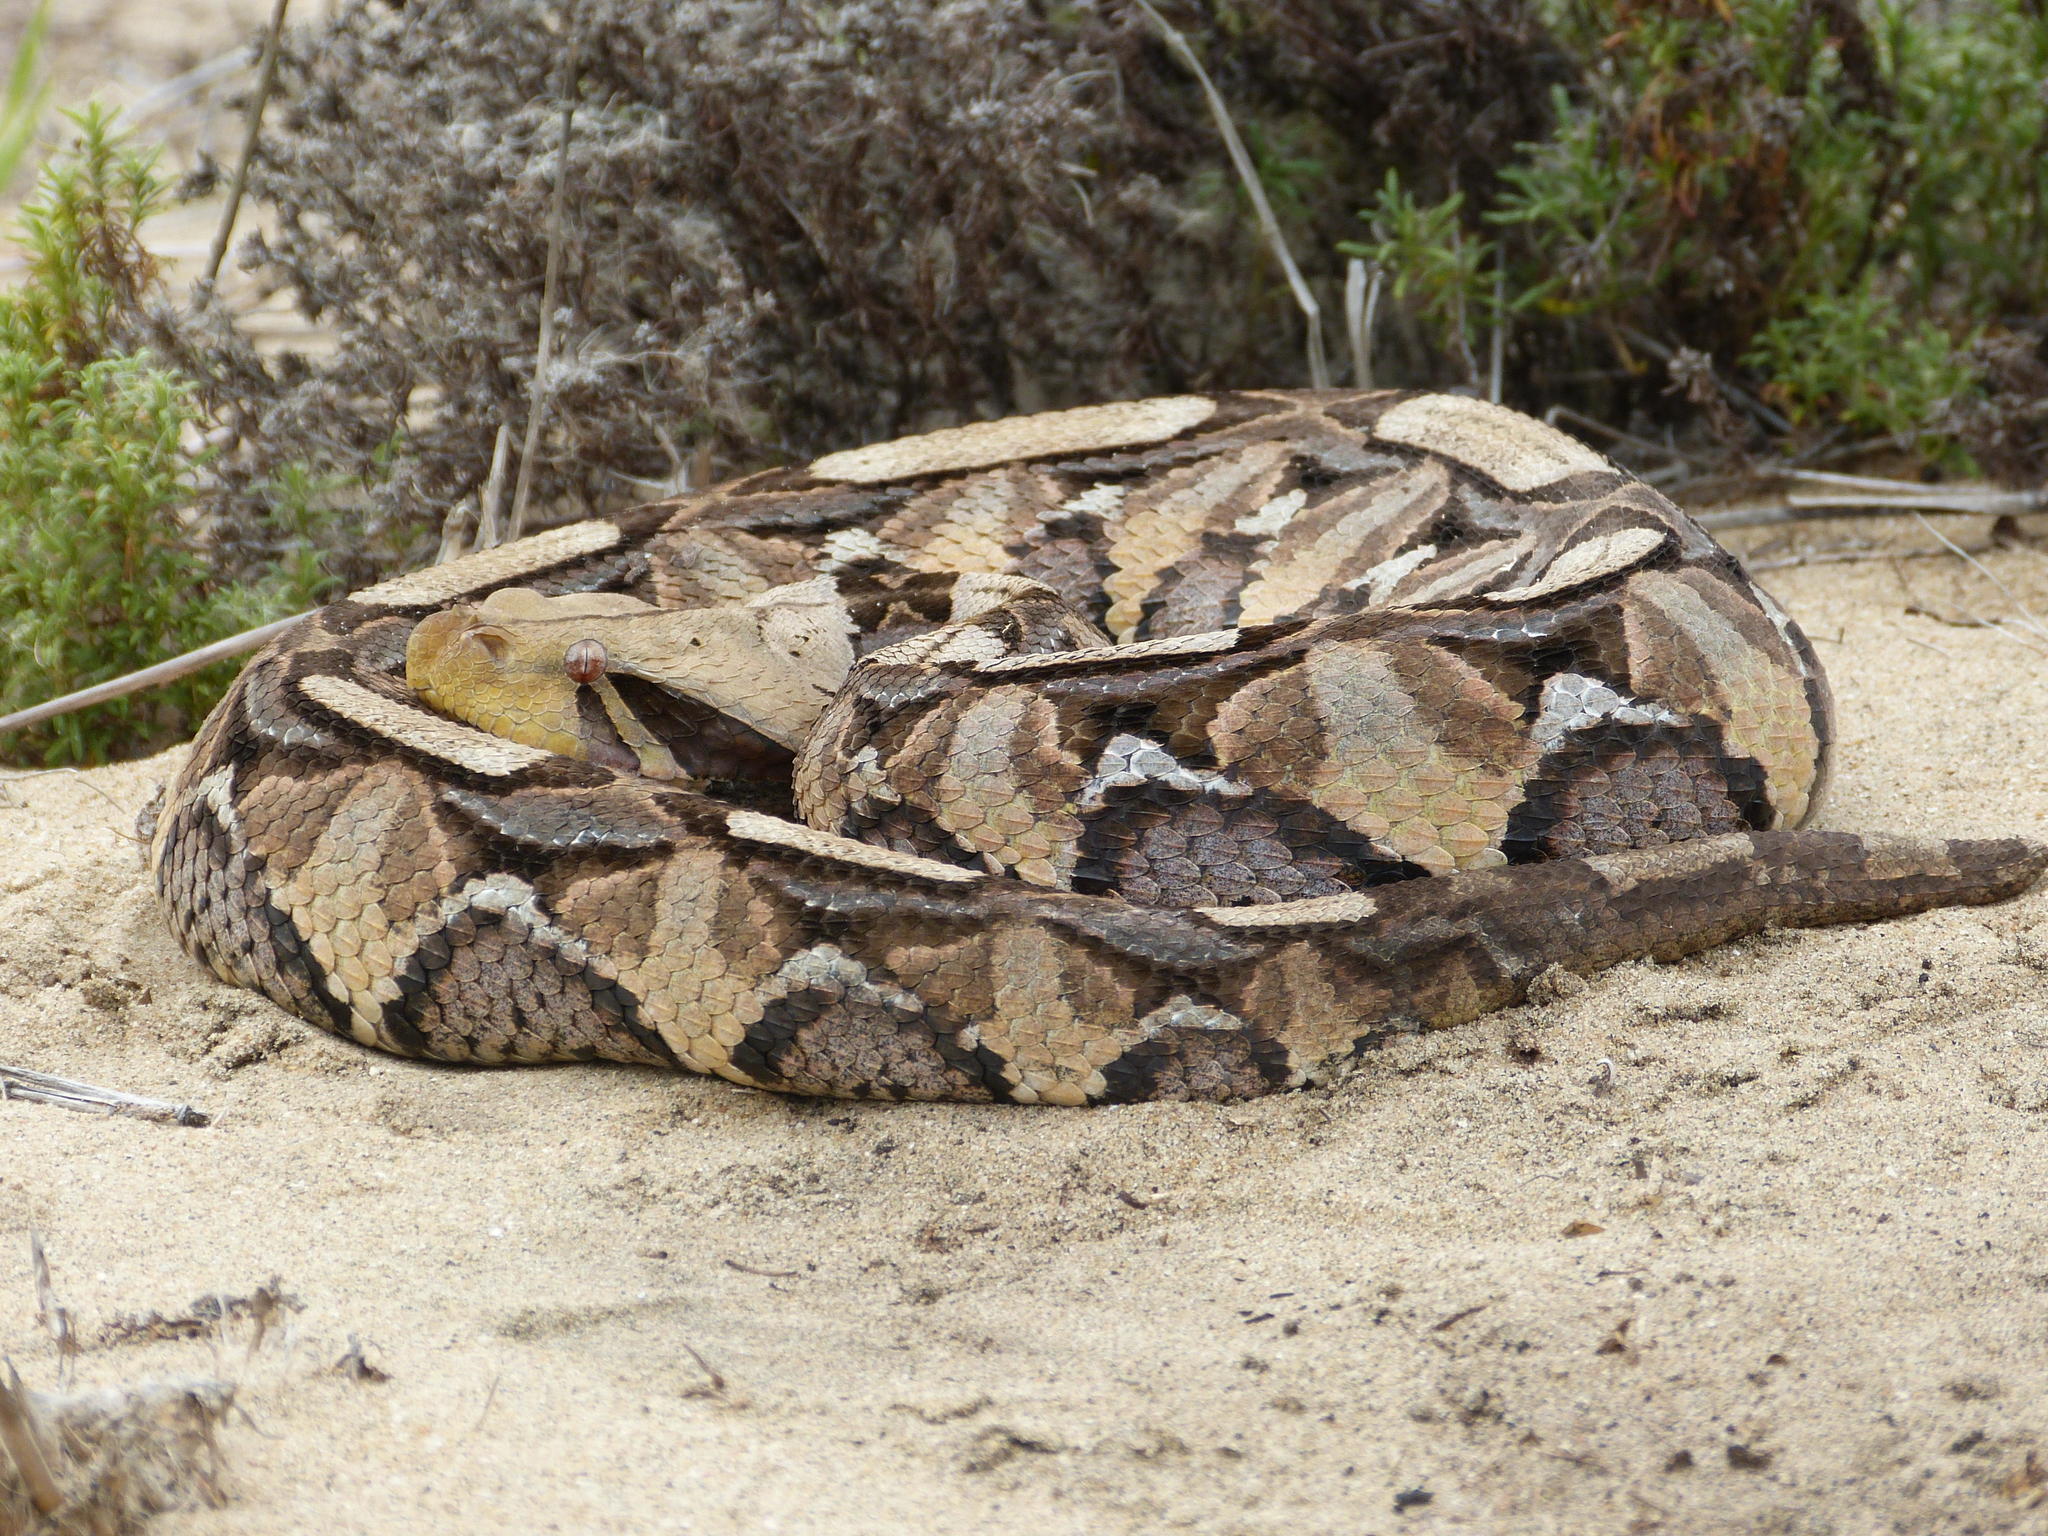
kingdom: Animalia
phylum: Chordata
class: Squamata
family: Viperidae
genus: Bitis
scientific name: Bitis gabonica
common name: Gaboon adder
